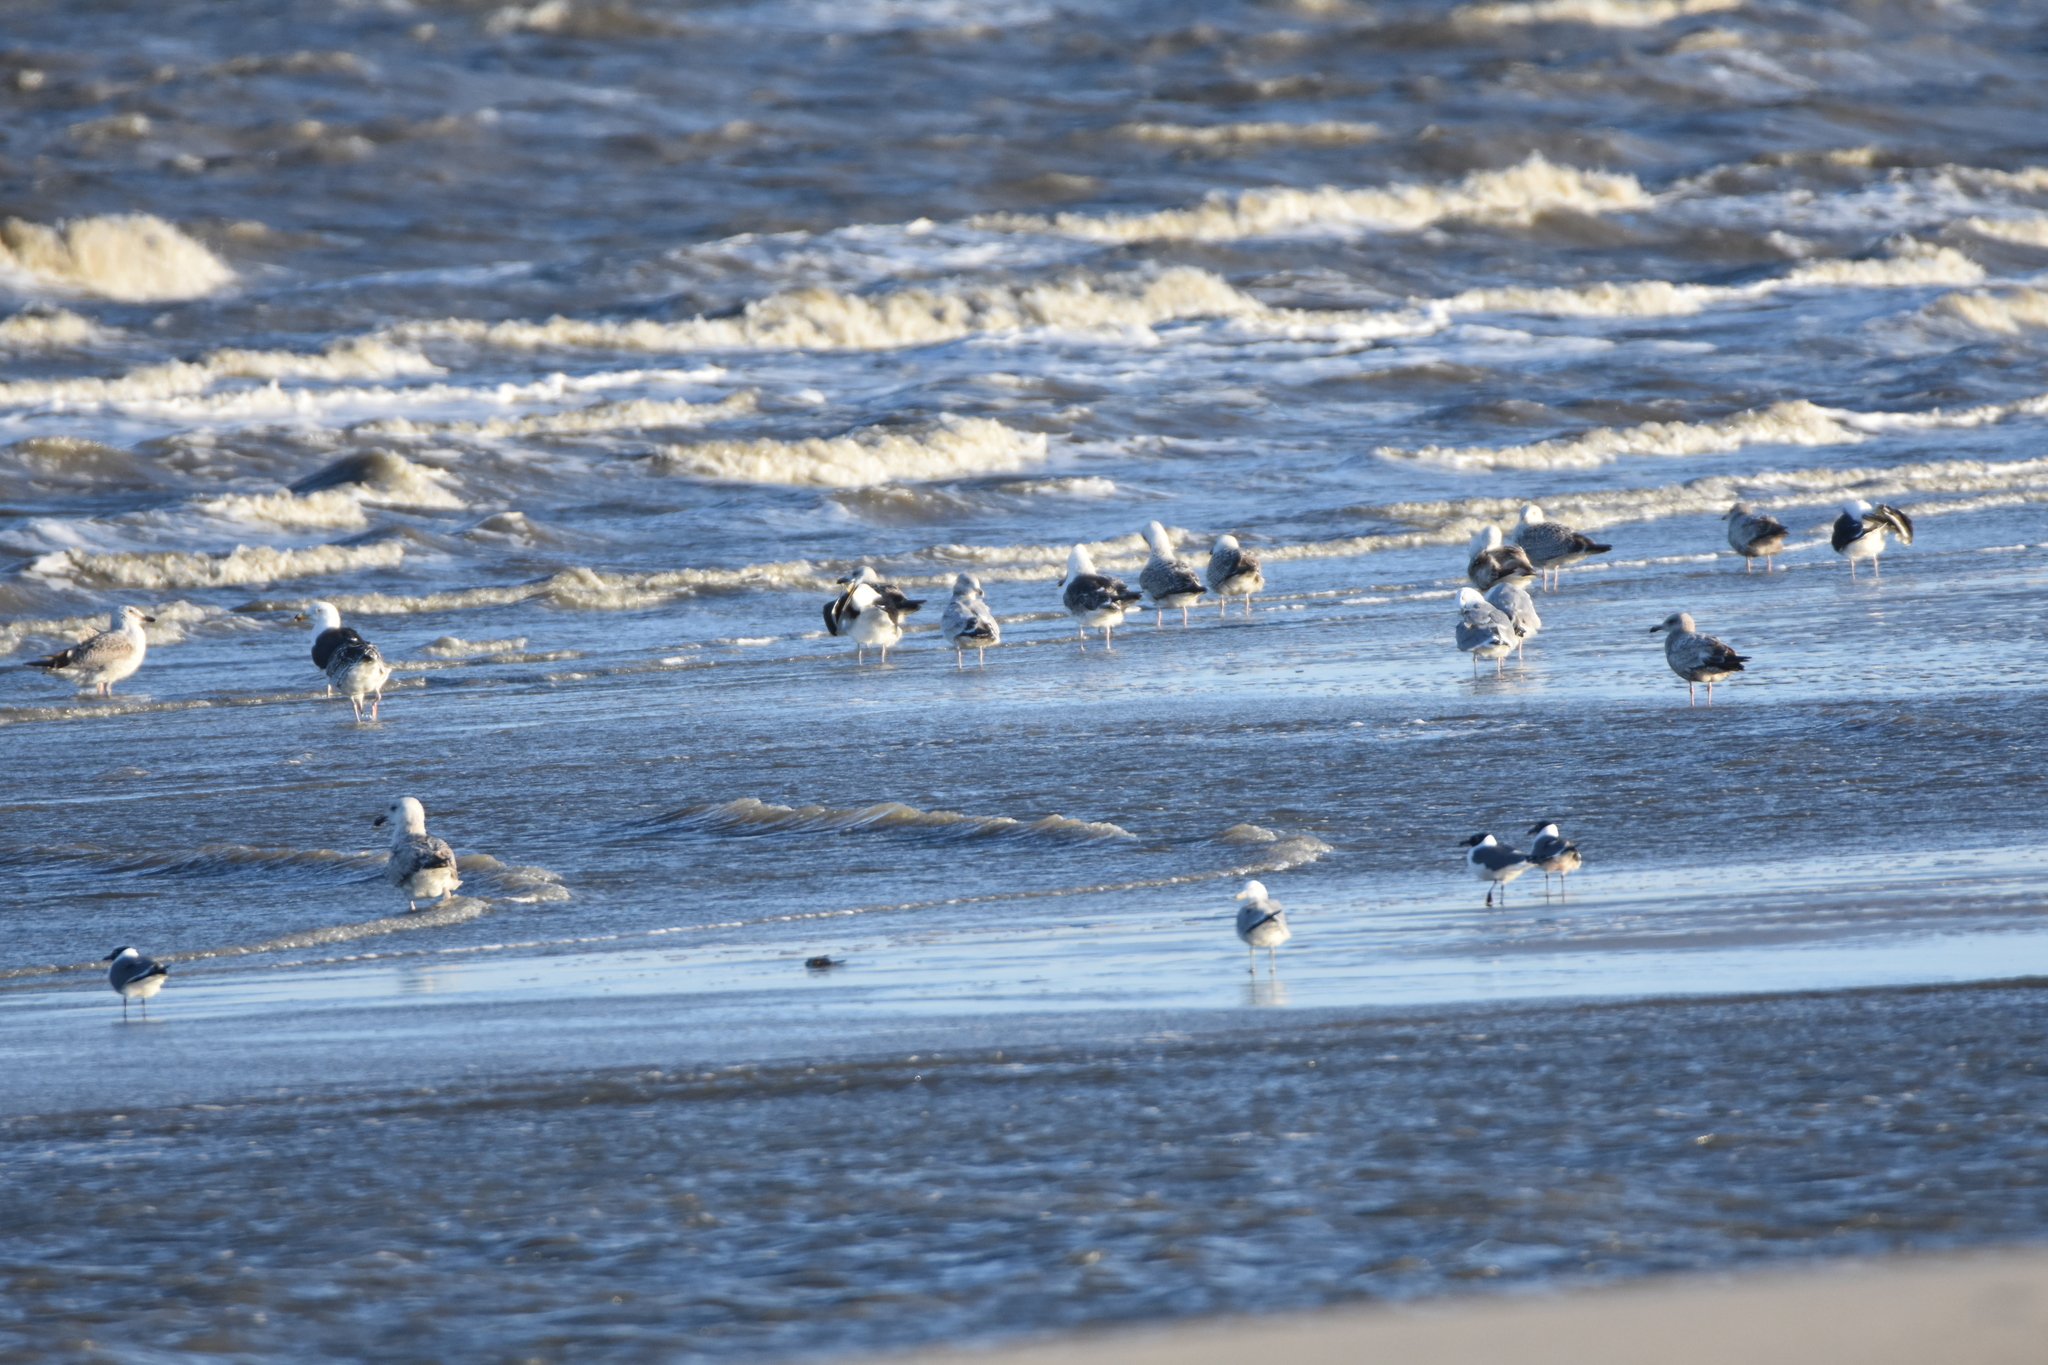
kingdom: Animalia
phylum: Chordata
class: Aves
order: Charadriiformes
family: Laridae
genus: Leucophaeus
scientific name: Leucophaeus atricilla
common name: Laughing gull
